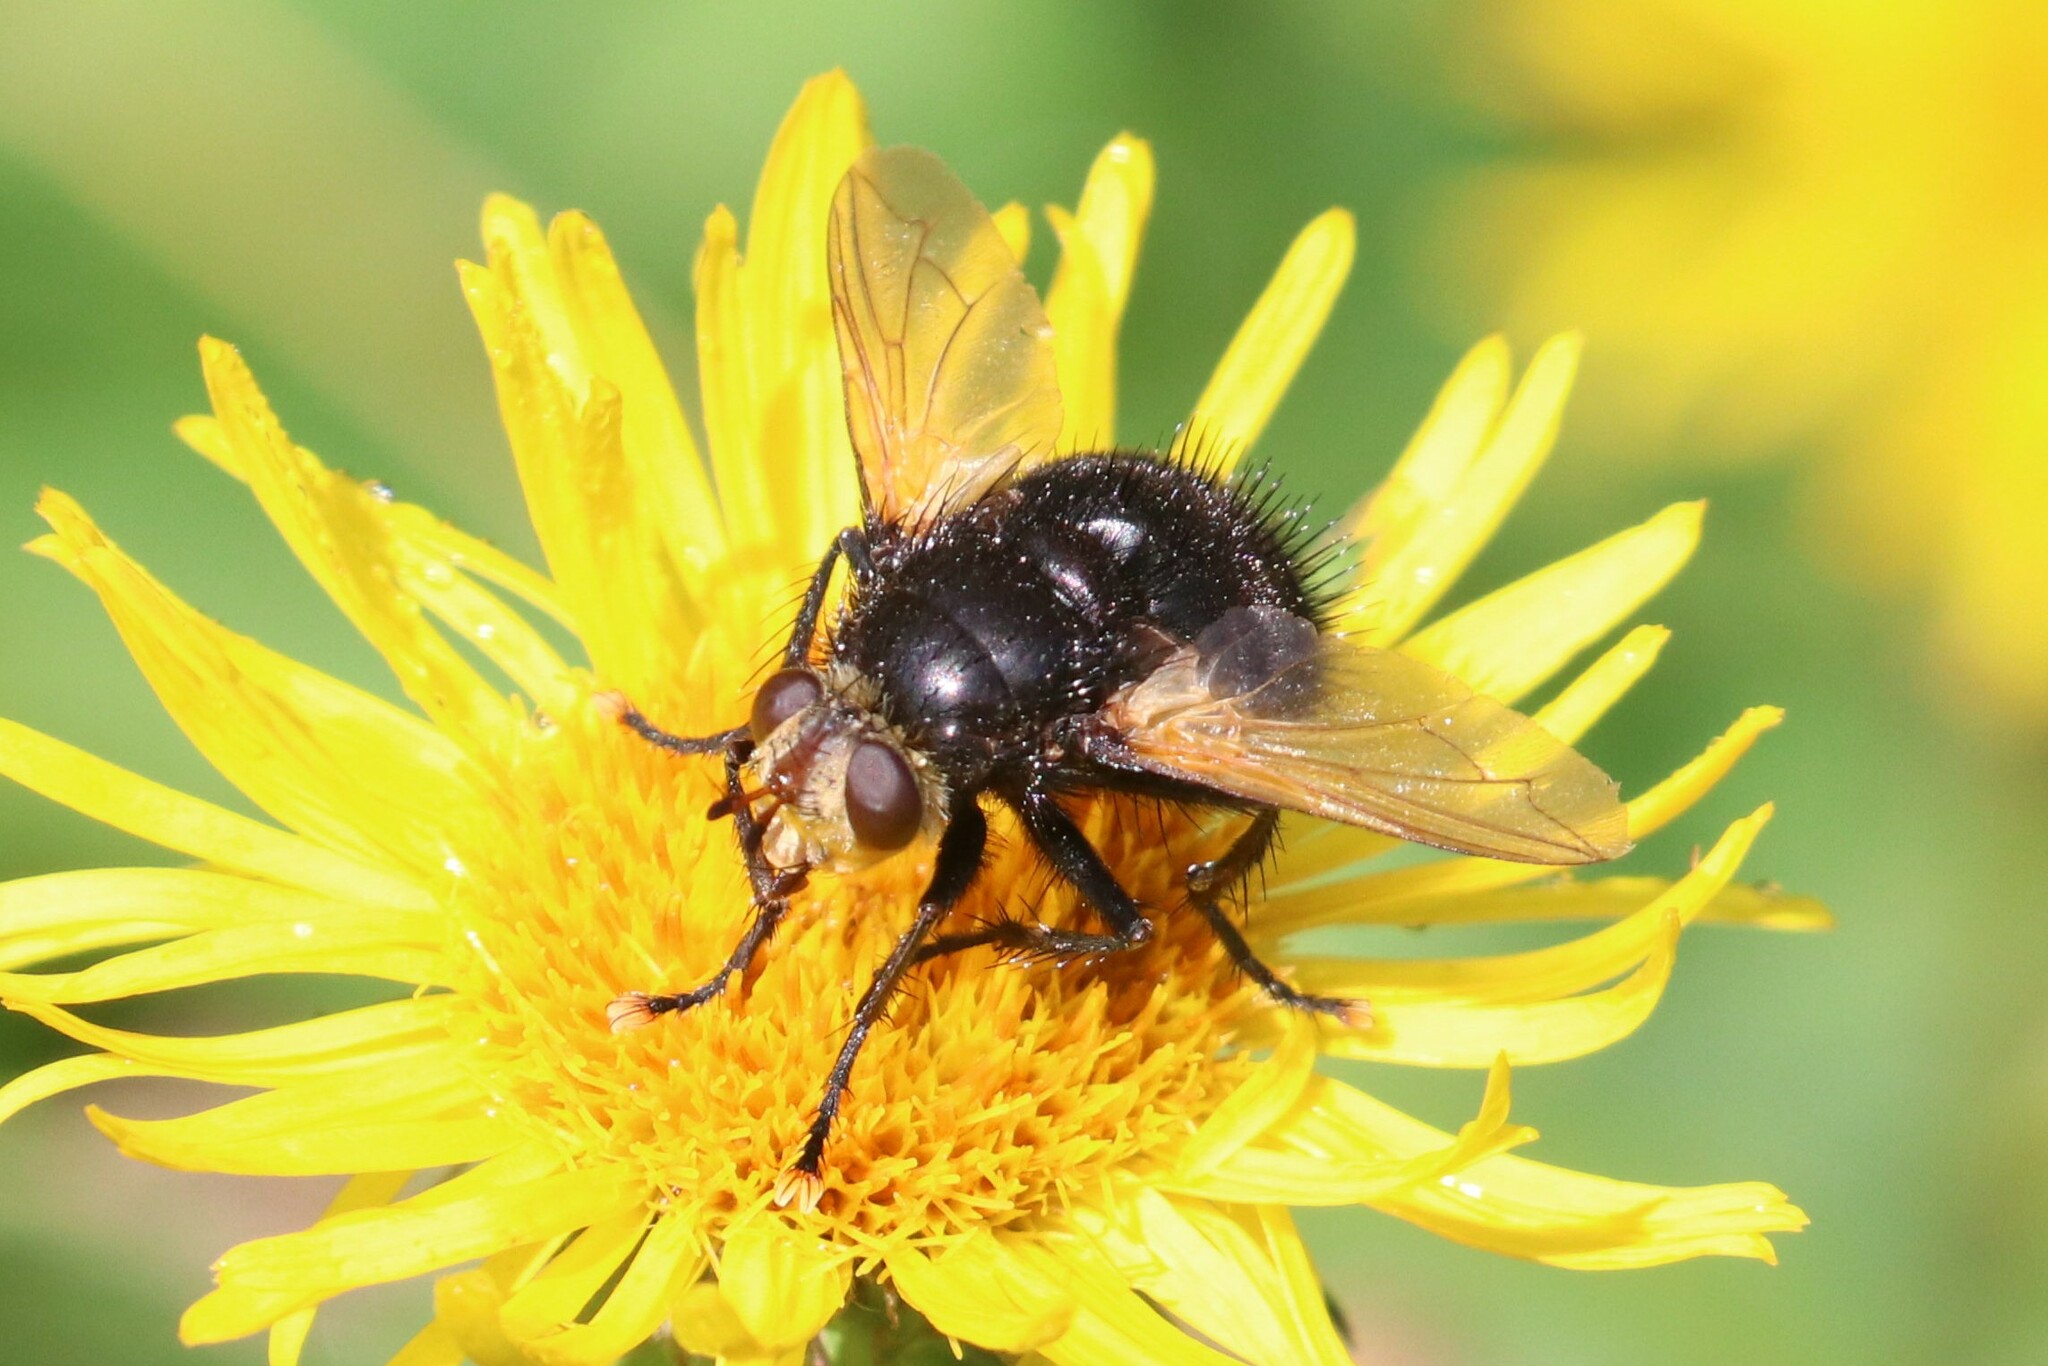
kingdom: Animalia
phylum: Arthropoda
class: Insecta
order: Diptera
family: Tachinidae
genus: Tachina
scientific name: Tachina grossa
